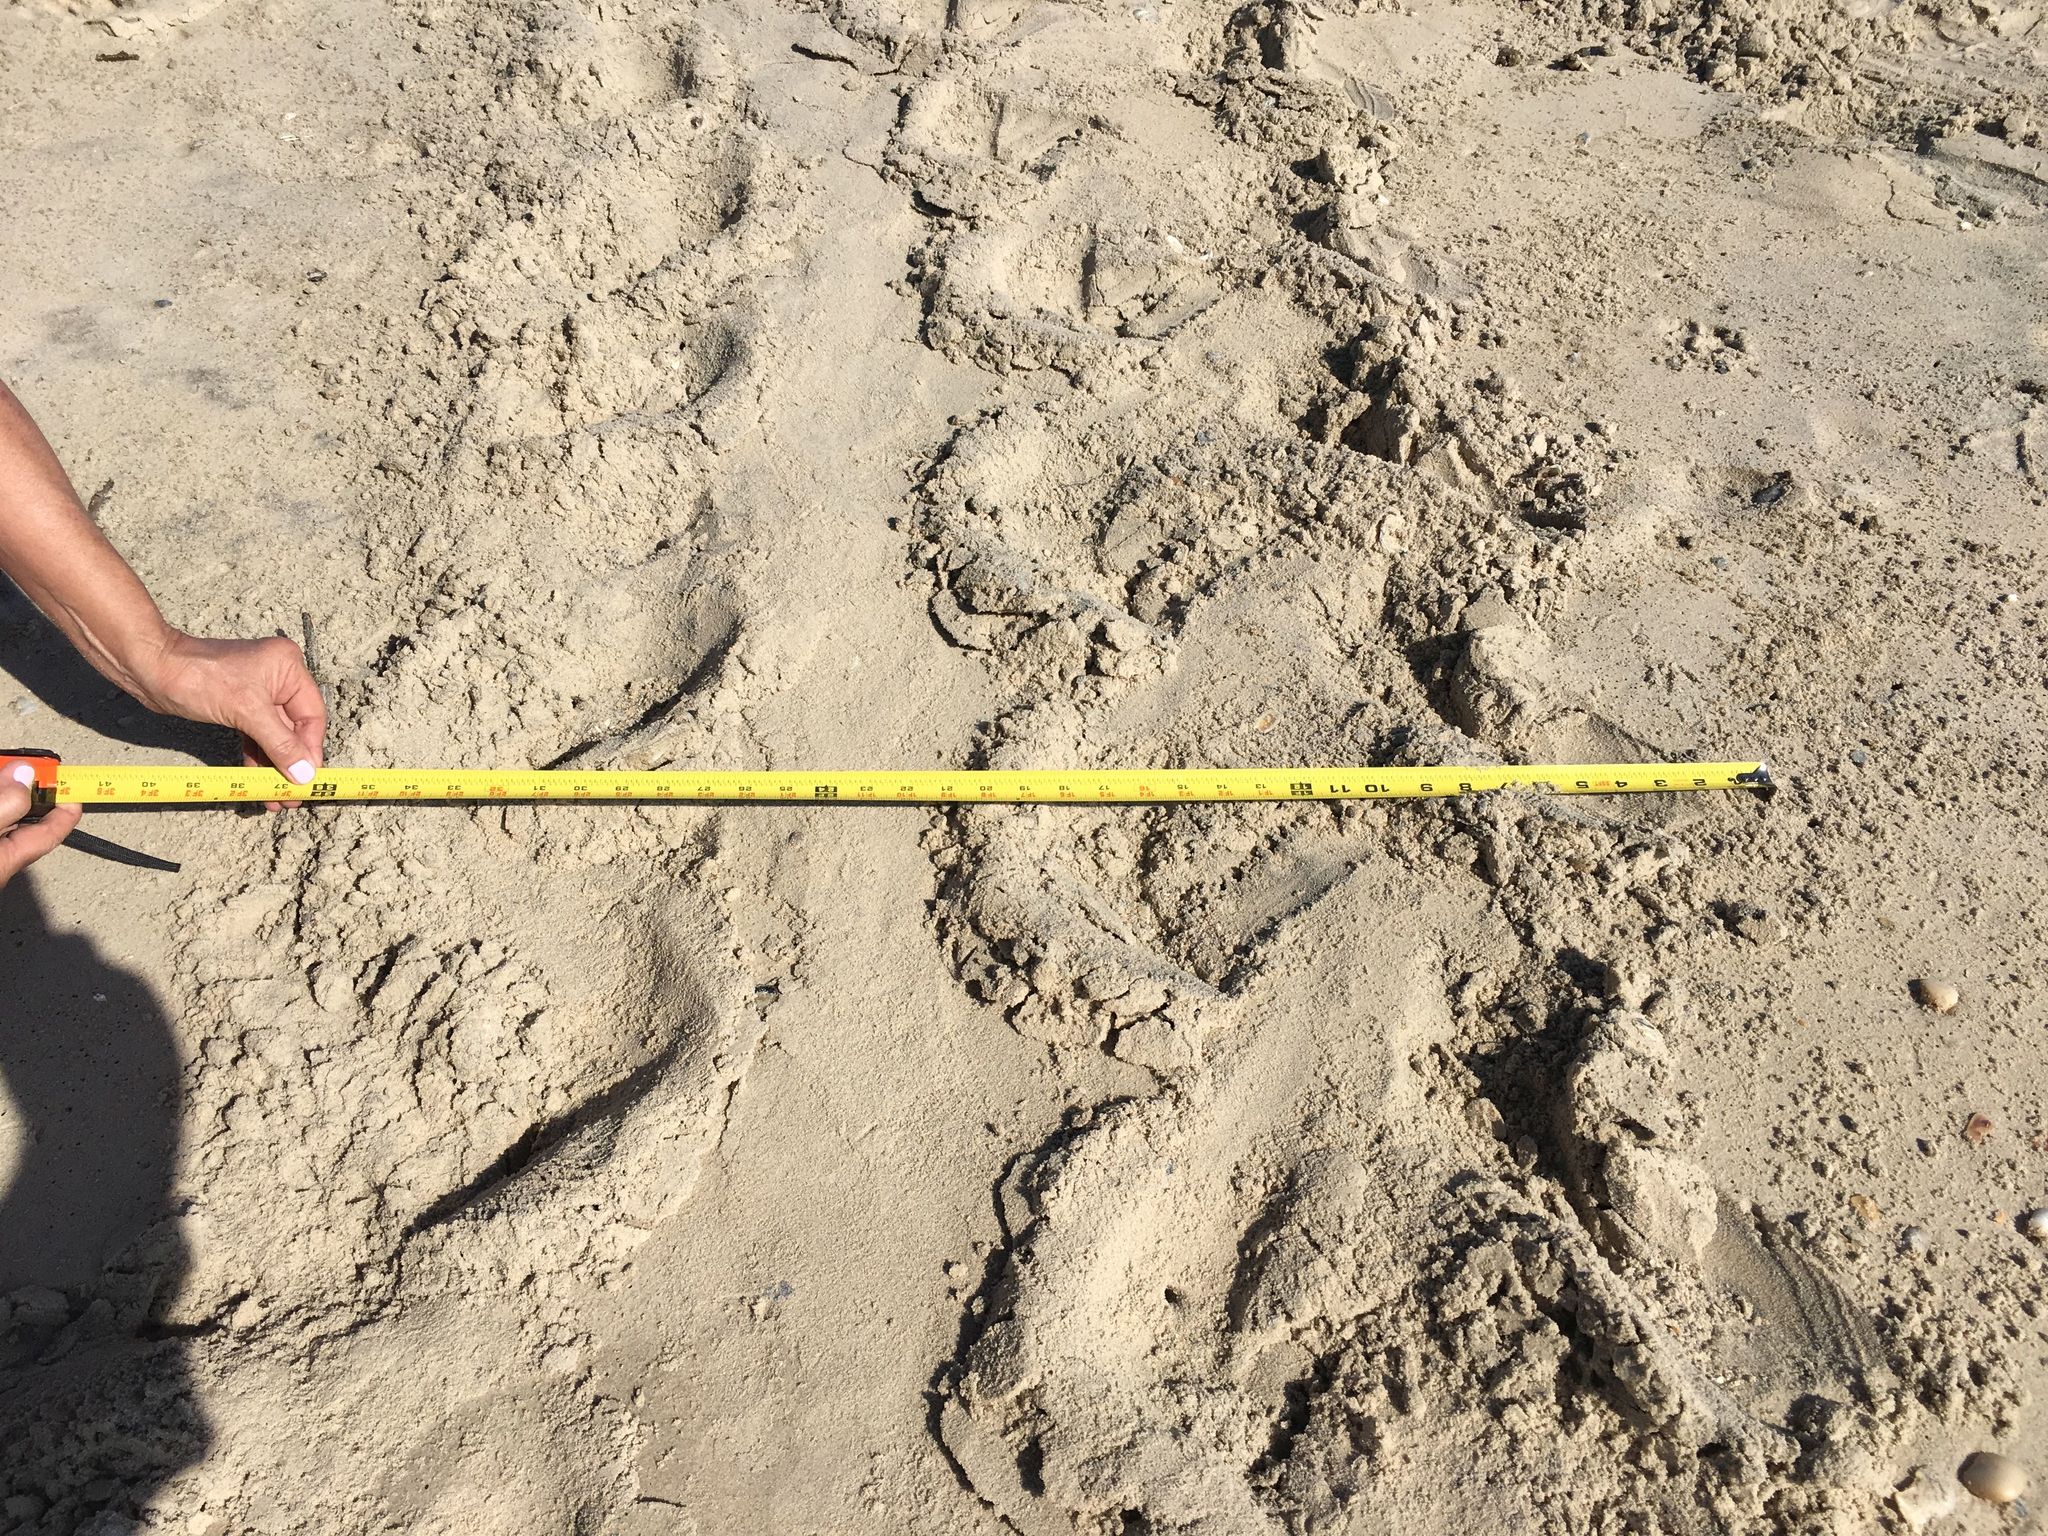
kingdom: Animalia
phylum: Chordata
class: Testudines
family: Cheloniidae
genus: Caretta
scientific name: Caretta caretta
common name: Loggerhead sea turtle
